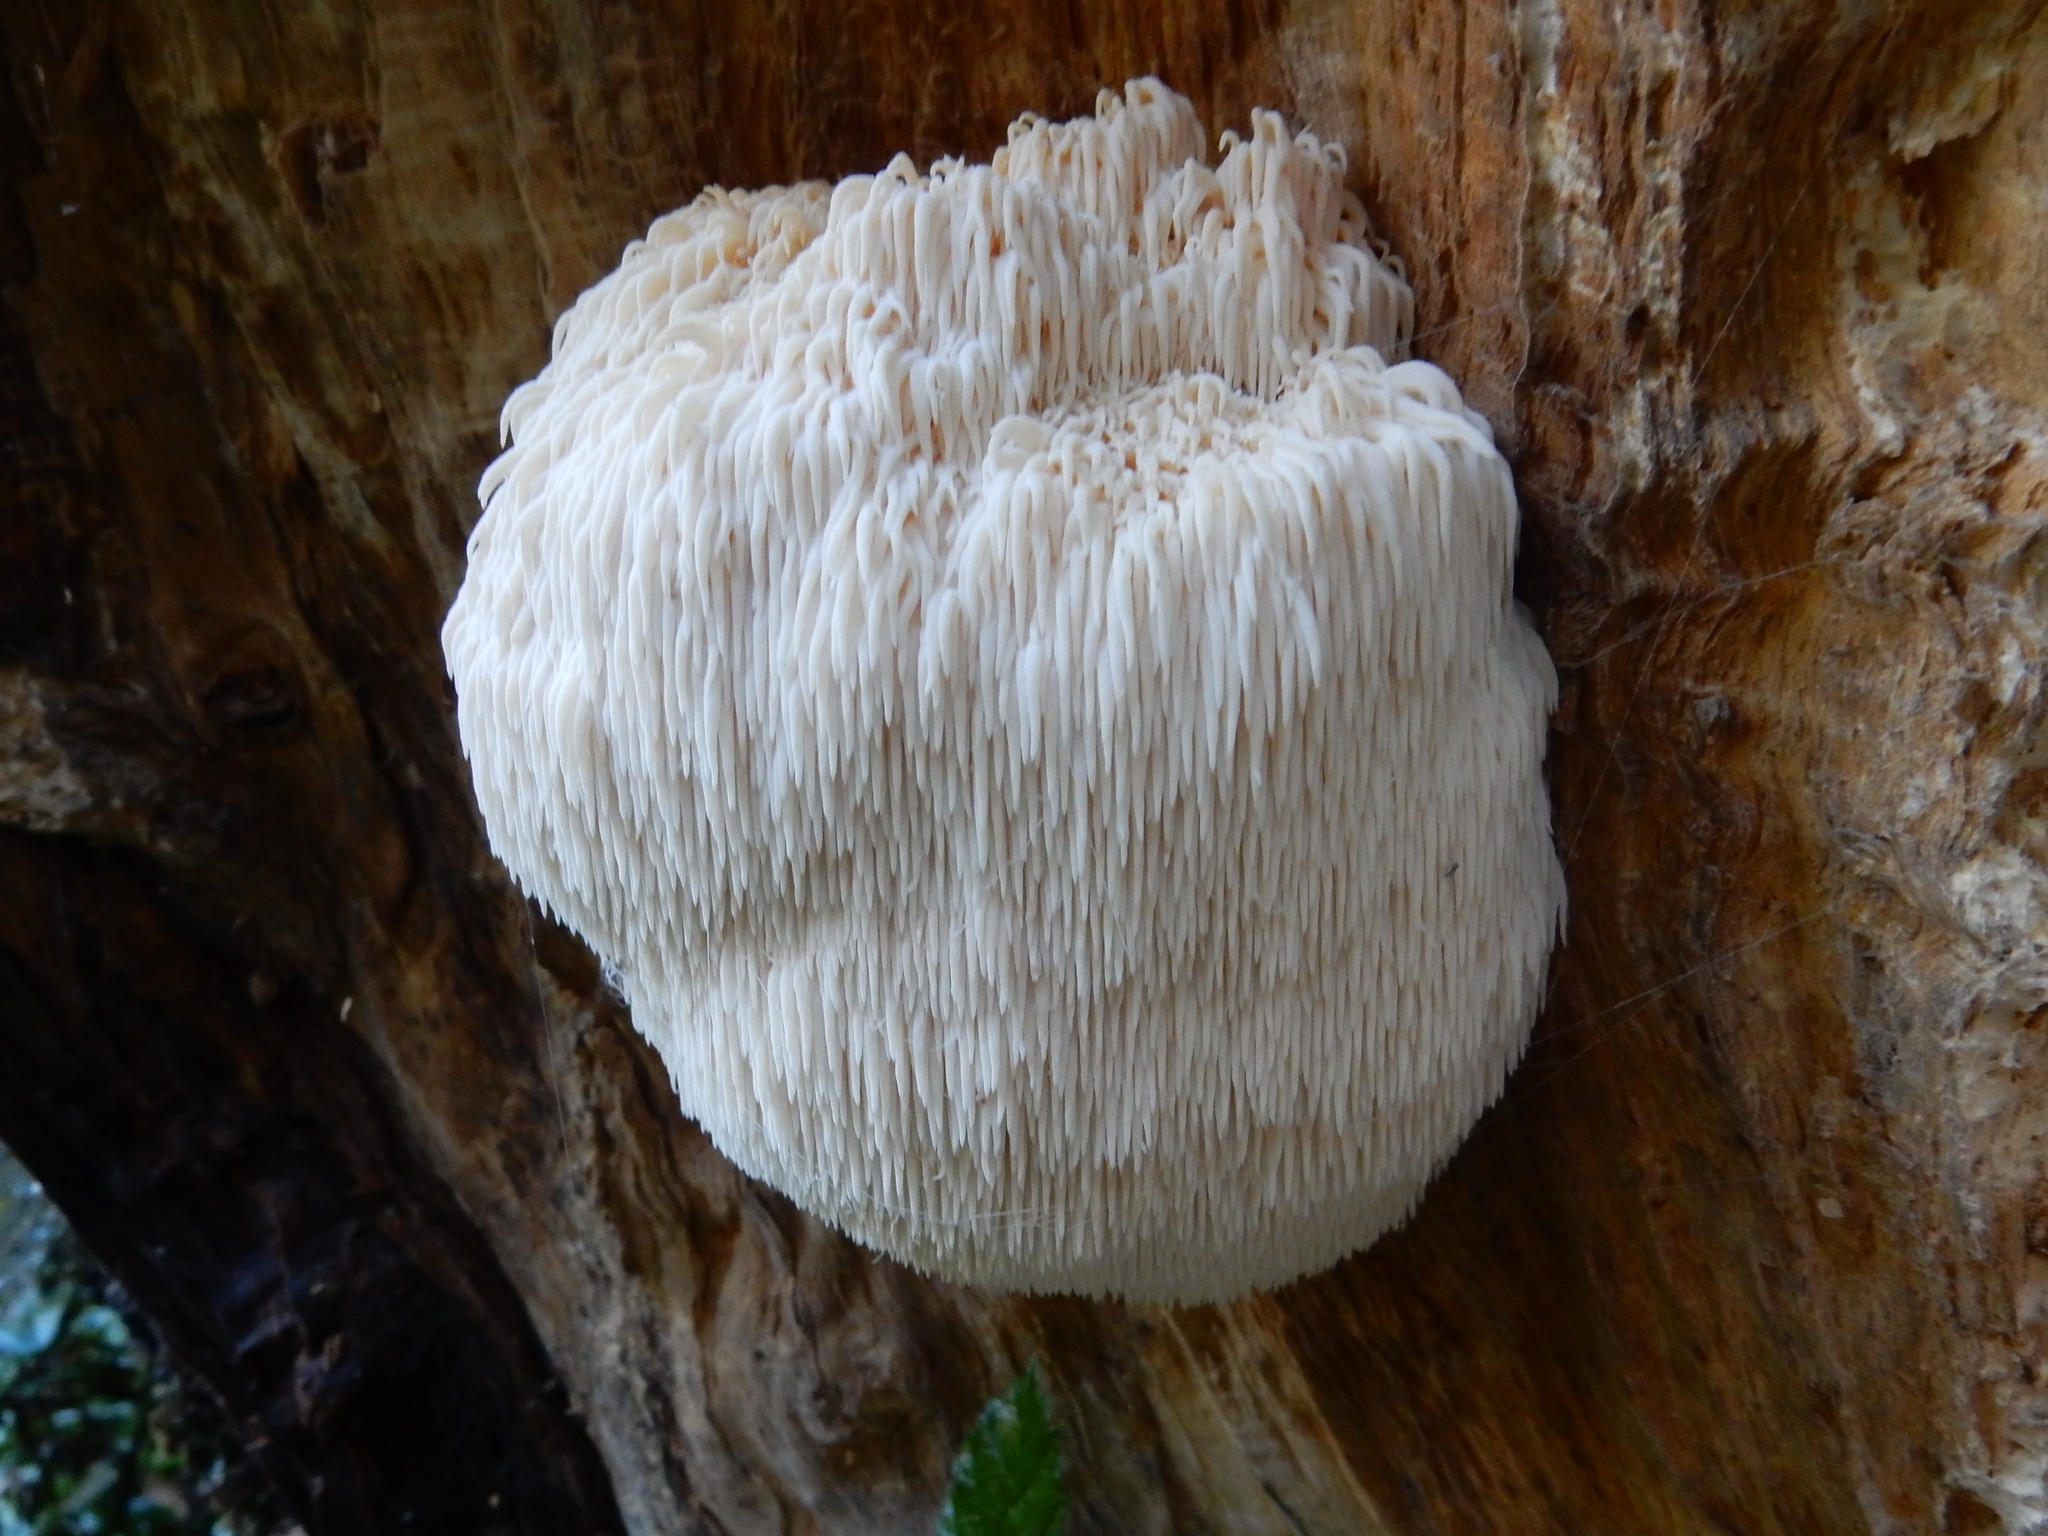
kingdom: Fungi
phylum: Basidiomycota
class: Agaricomycetes
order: Russulales
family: Hericiaceae
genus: Hericium
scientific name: Hericium novae-zealandiae
